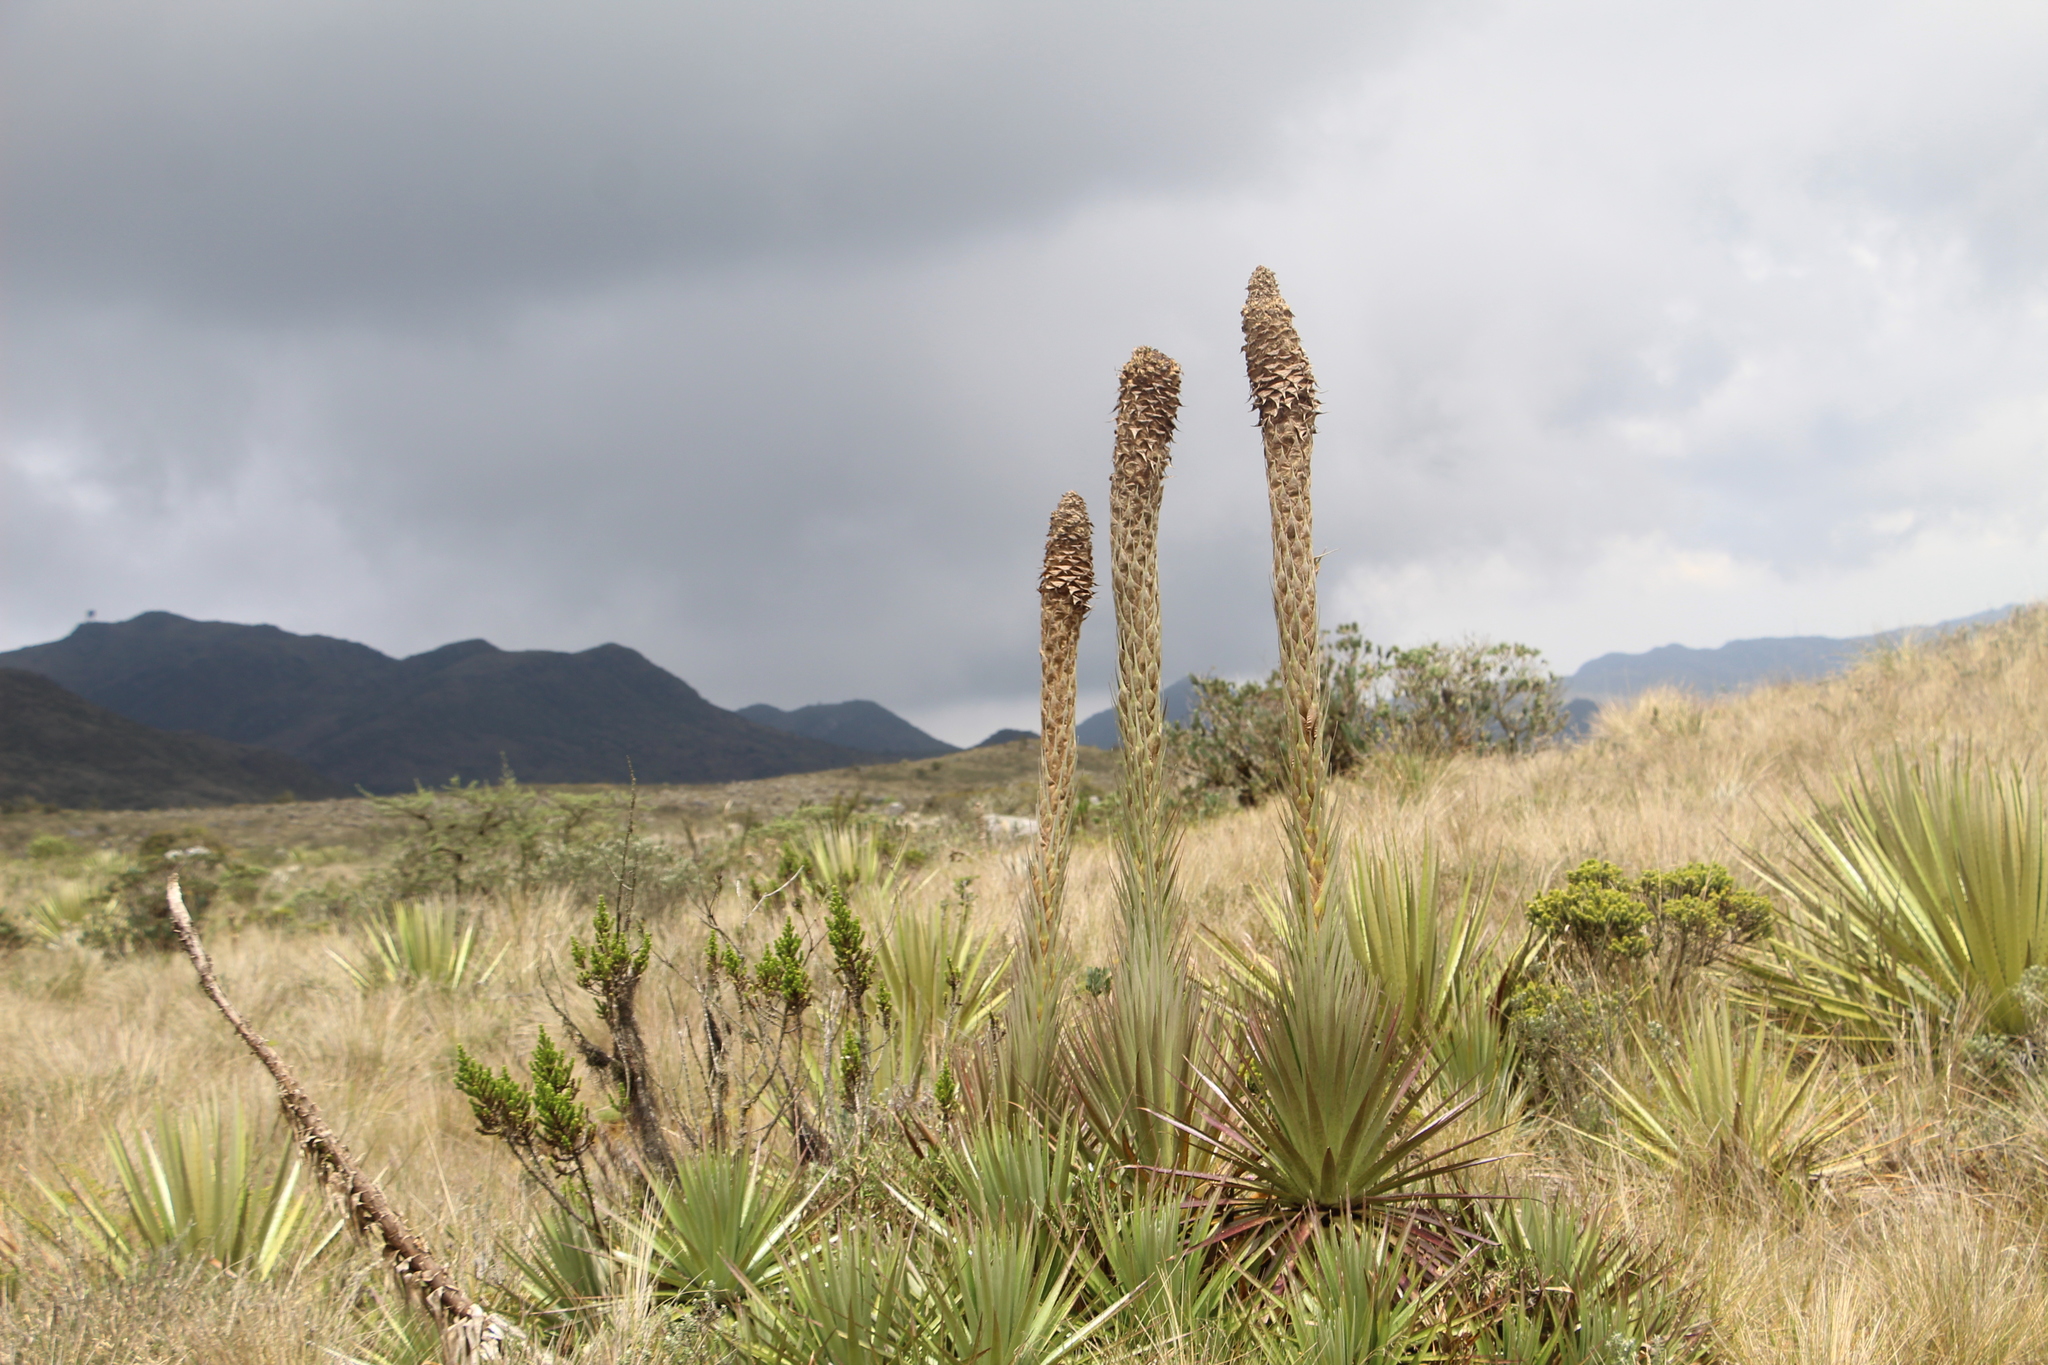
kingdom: Plantae
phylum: Tracheophyta
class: Liliopsida
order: Poales
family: Bromeliaceae
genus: Puya
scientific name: Puya santosii
